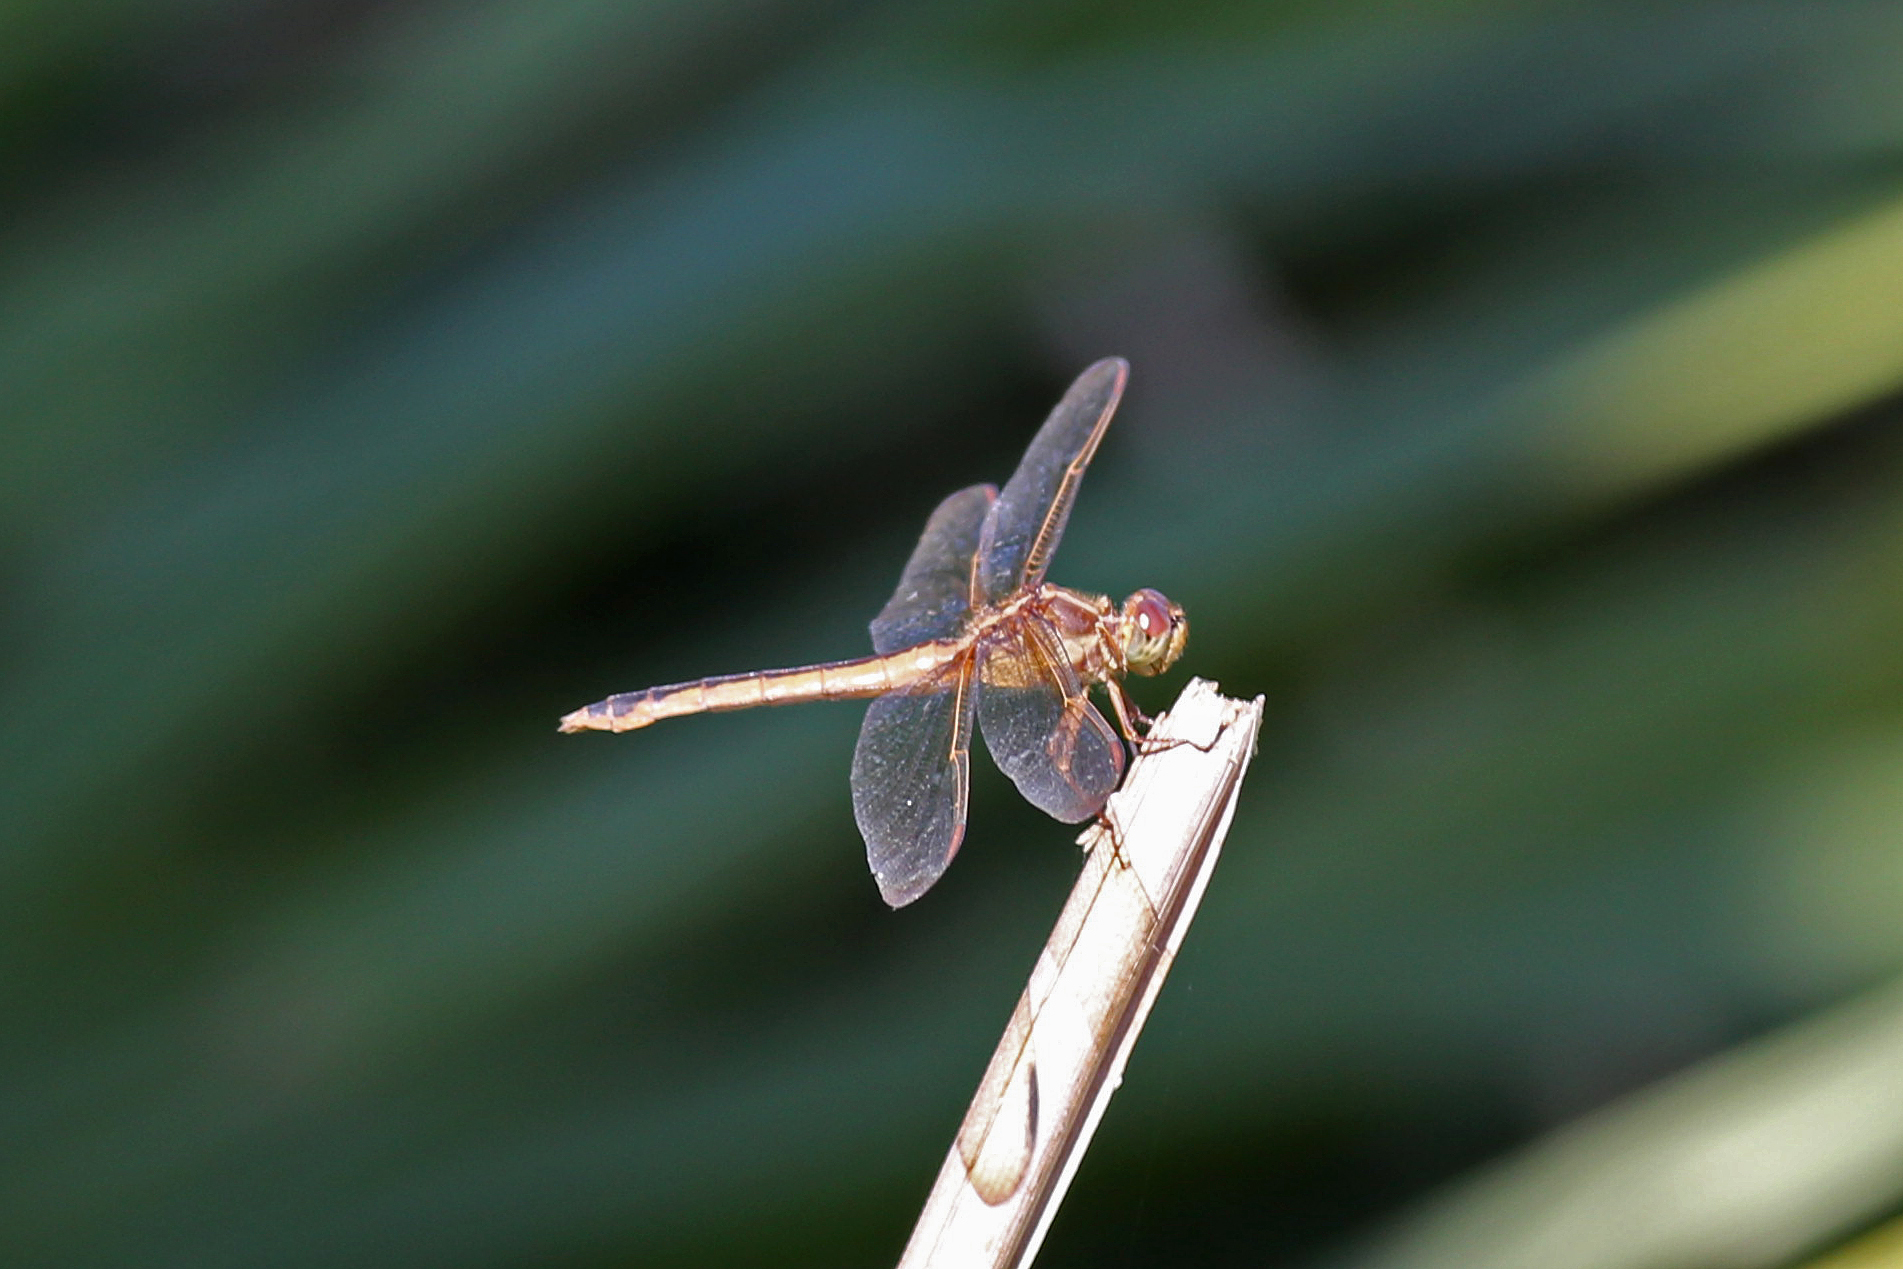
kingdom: Animalia
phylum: Arthropoda
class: Insecta
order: Odonata
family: Libellulidae
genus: Libellula
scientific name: Libellula needhami
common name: Needham's skimmer
